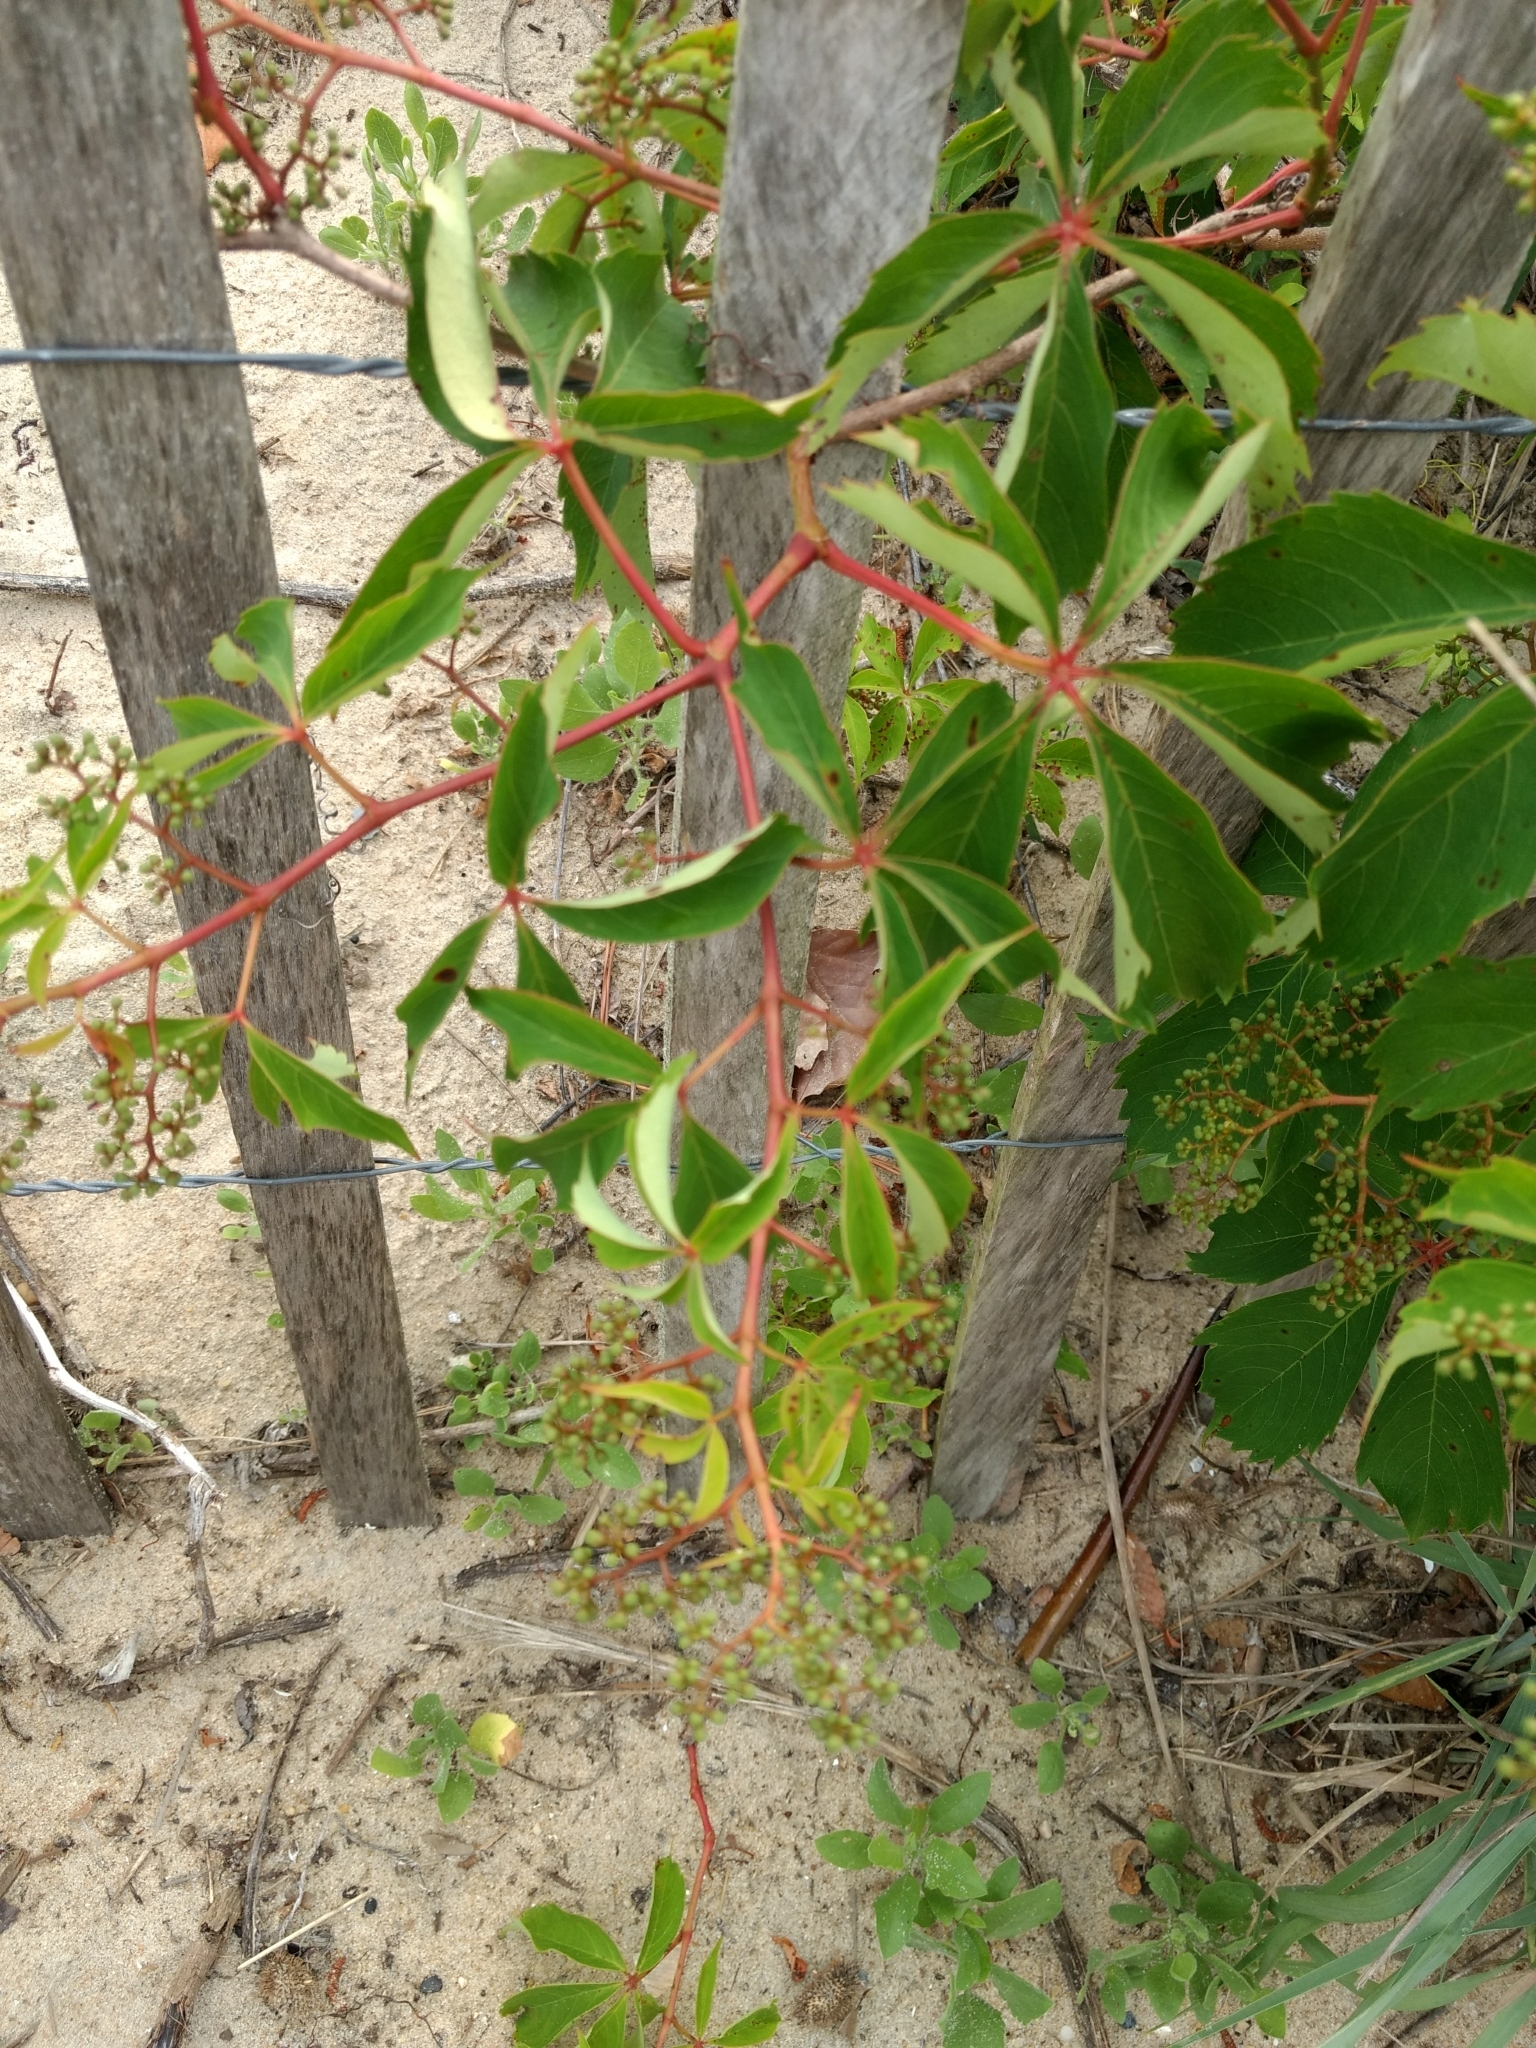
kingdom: Plantae
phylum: Tracheophyta
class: Magnoliopsida
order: Vitales
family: Vitaceae
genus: Parthenocissus
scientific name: Parthenocissus quinquefolia
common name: Virginia-creeper
